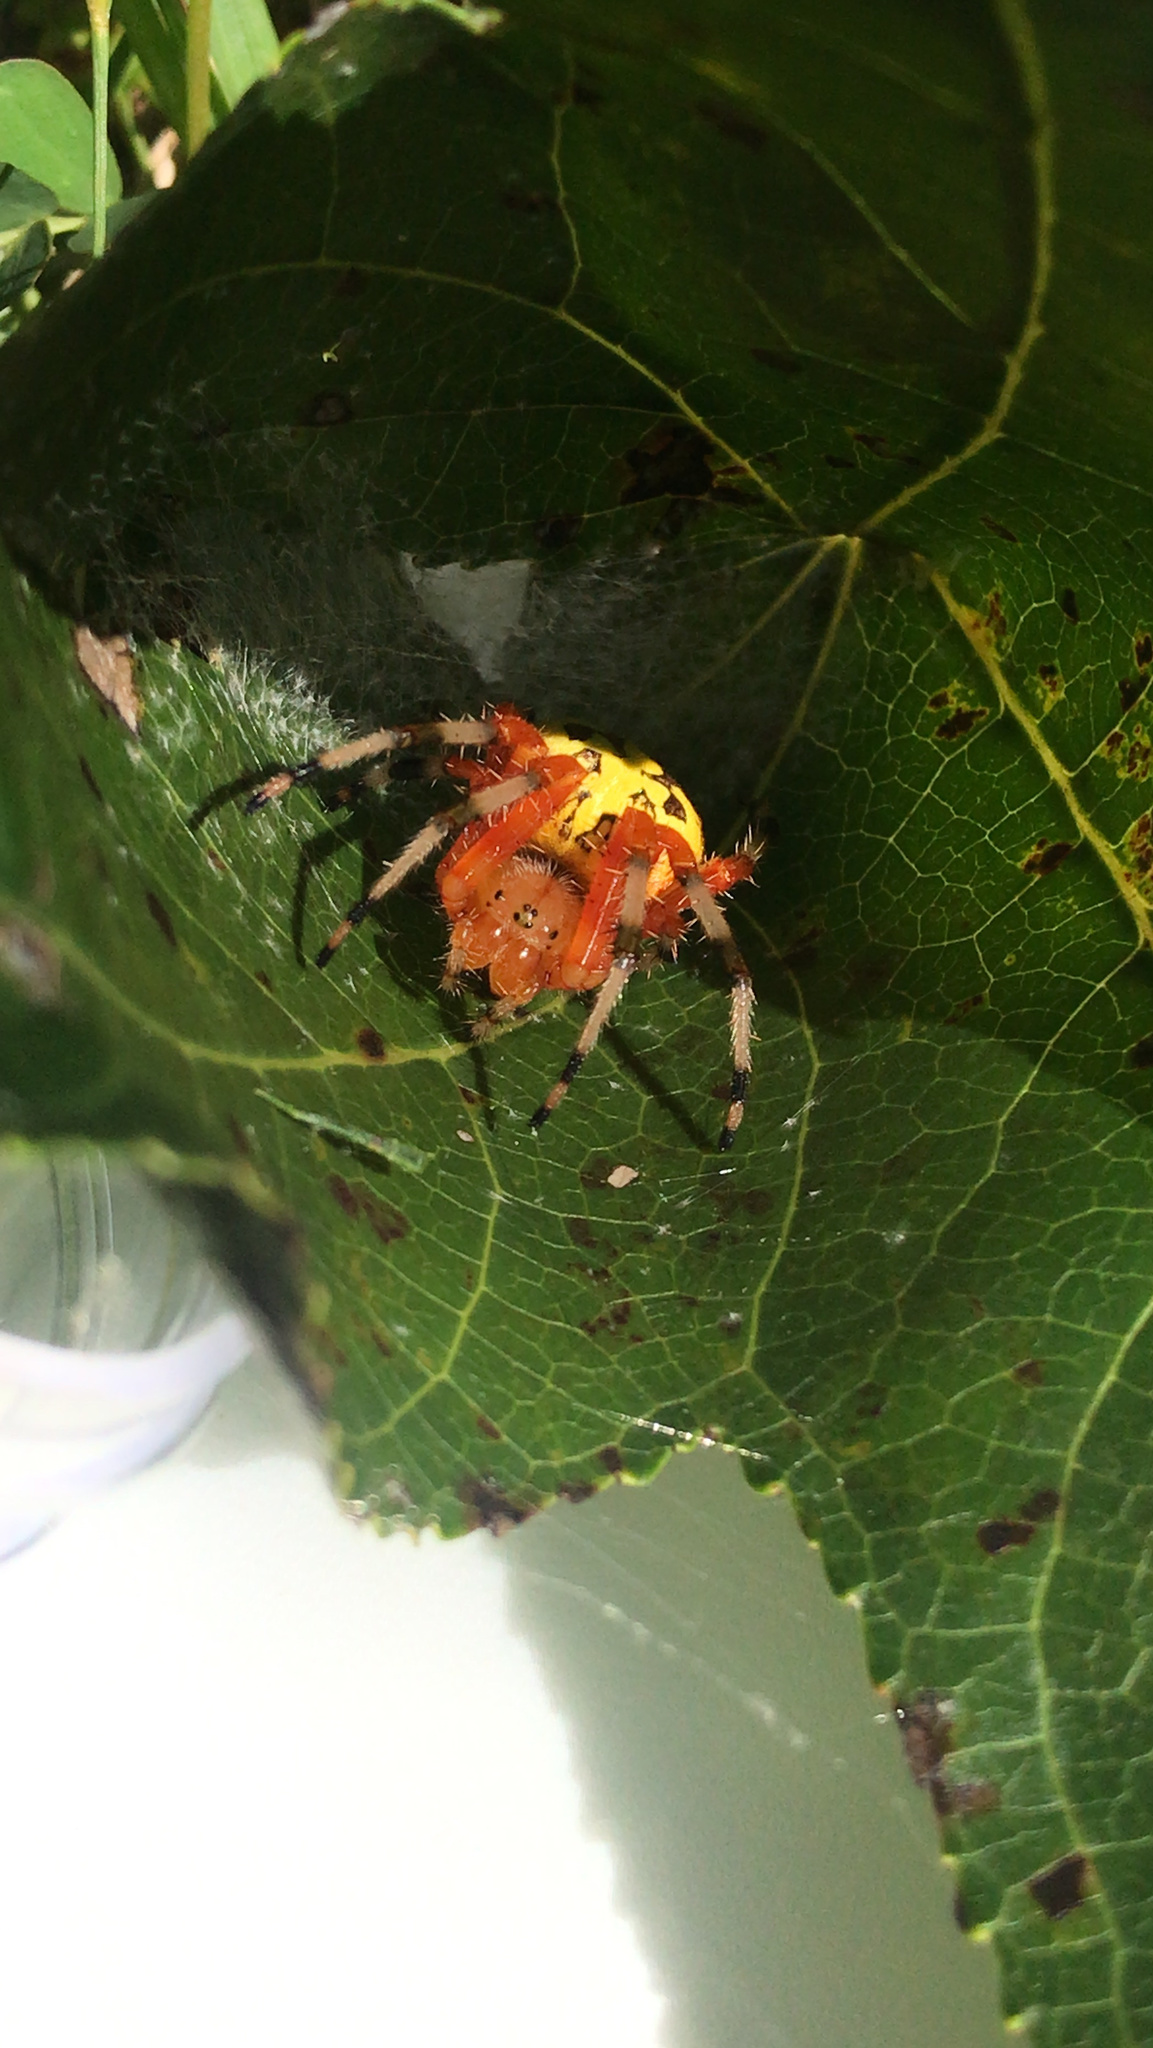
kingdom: Animalia
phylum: Arthropoda
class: Arachnida
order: Araneae
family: Araneidae
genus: Araneus
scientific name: Araneus marmoreus
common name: Marbled orbweaver
